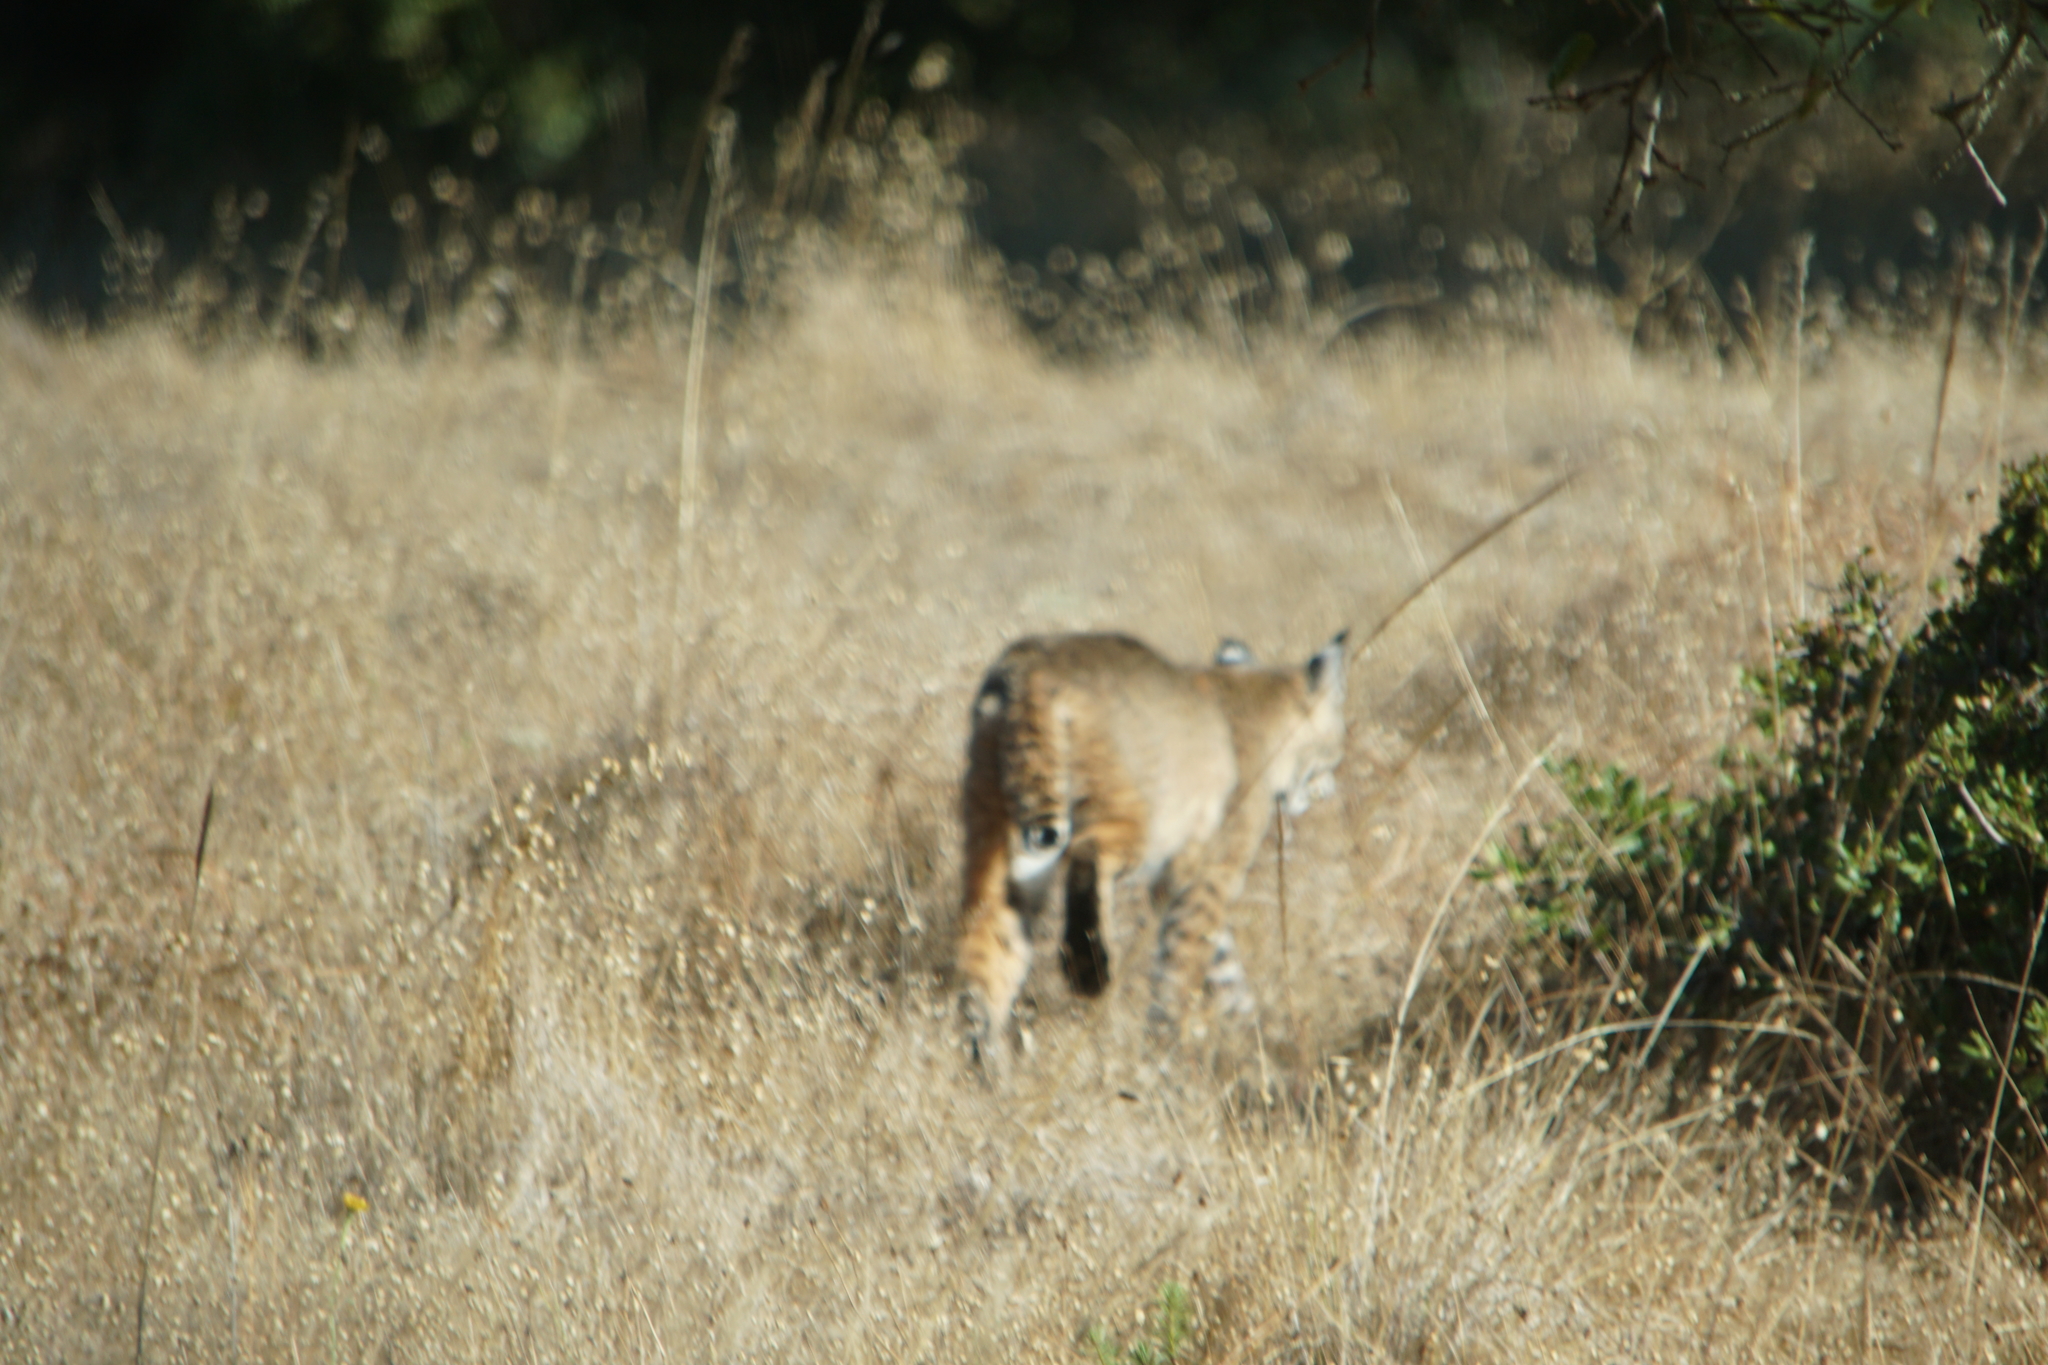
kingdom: Animalia
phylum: Chordata
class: Mammalia
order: Carnivora
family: Felidae
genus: Lynx
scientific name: Lynx rufus
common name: Bobcat
